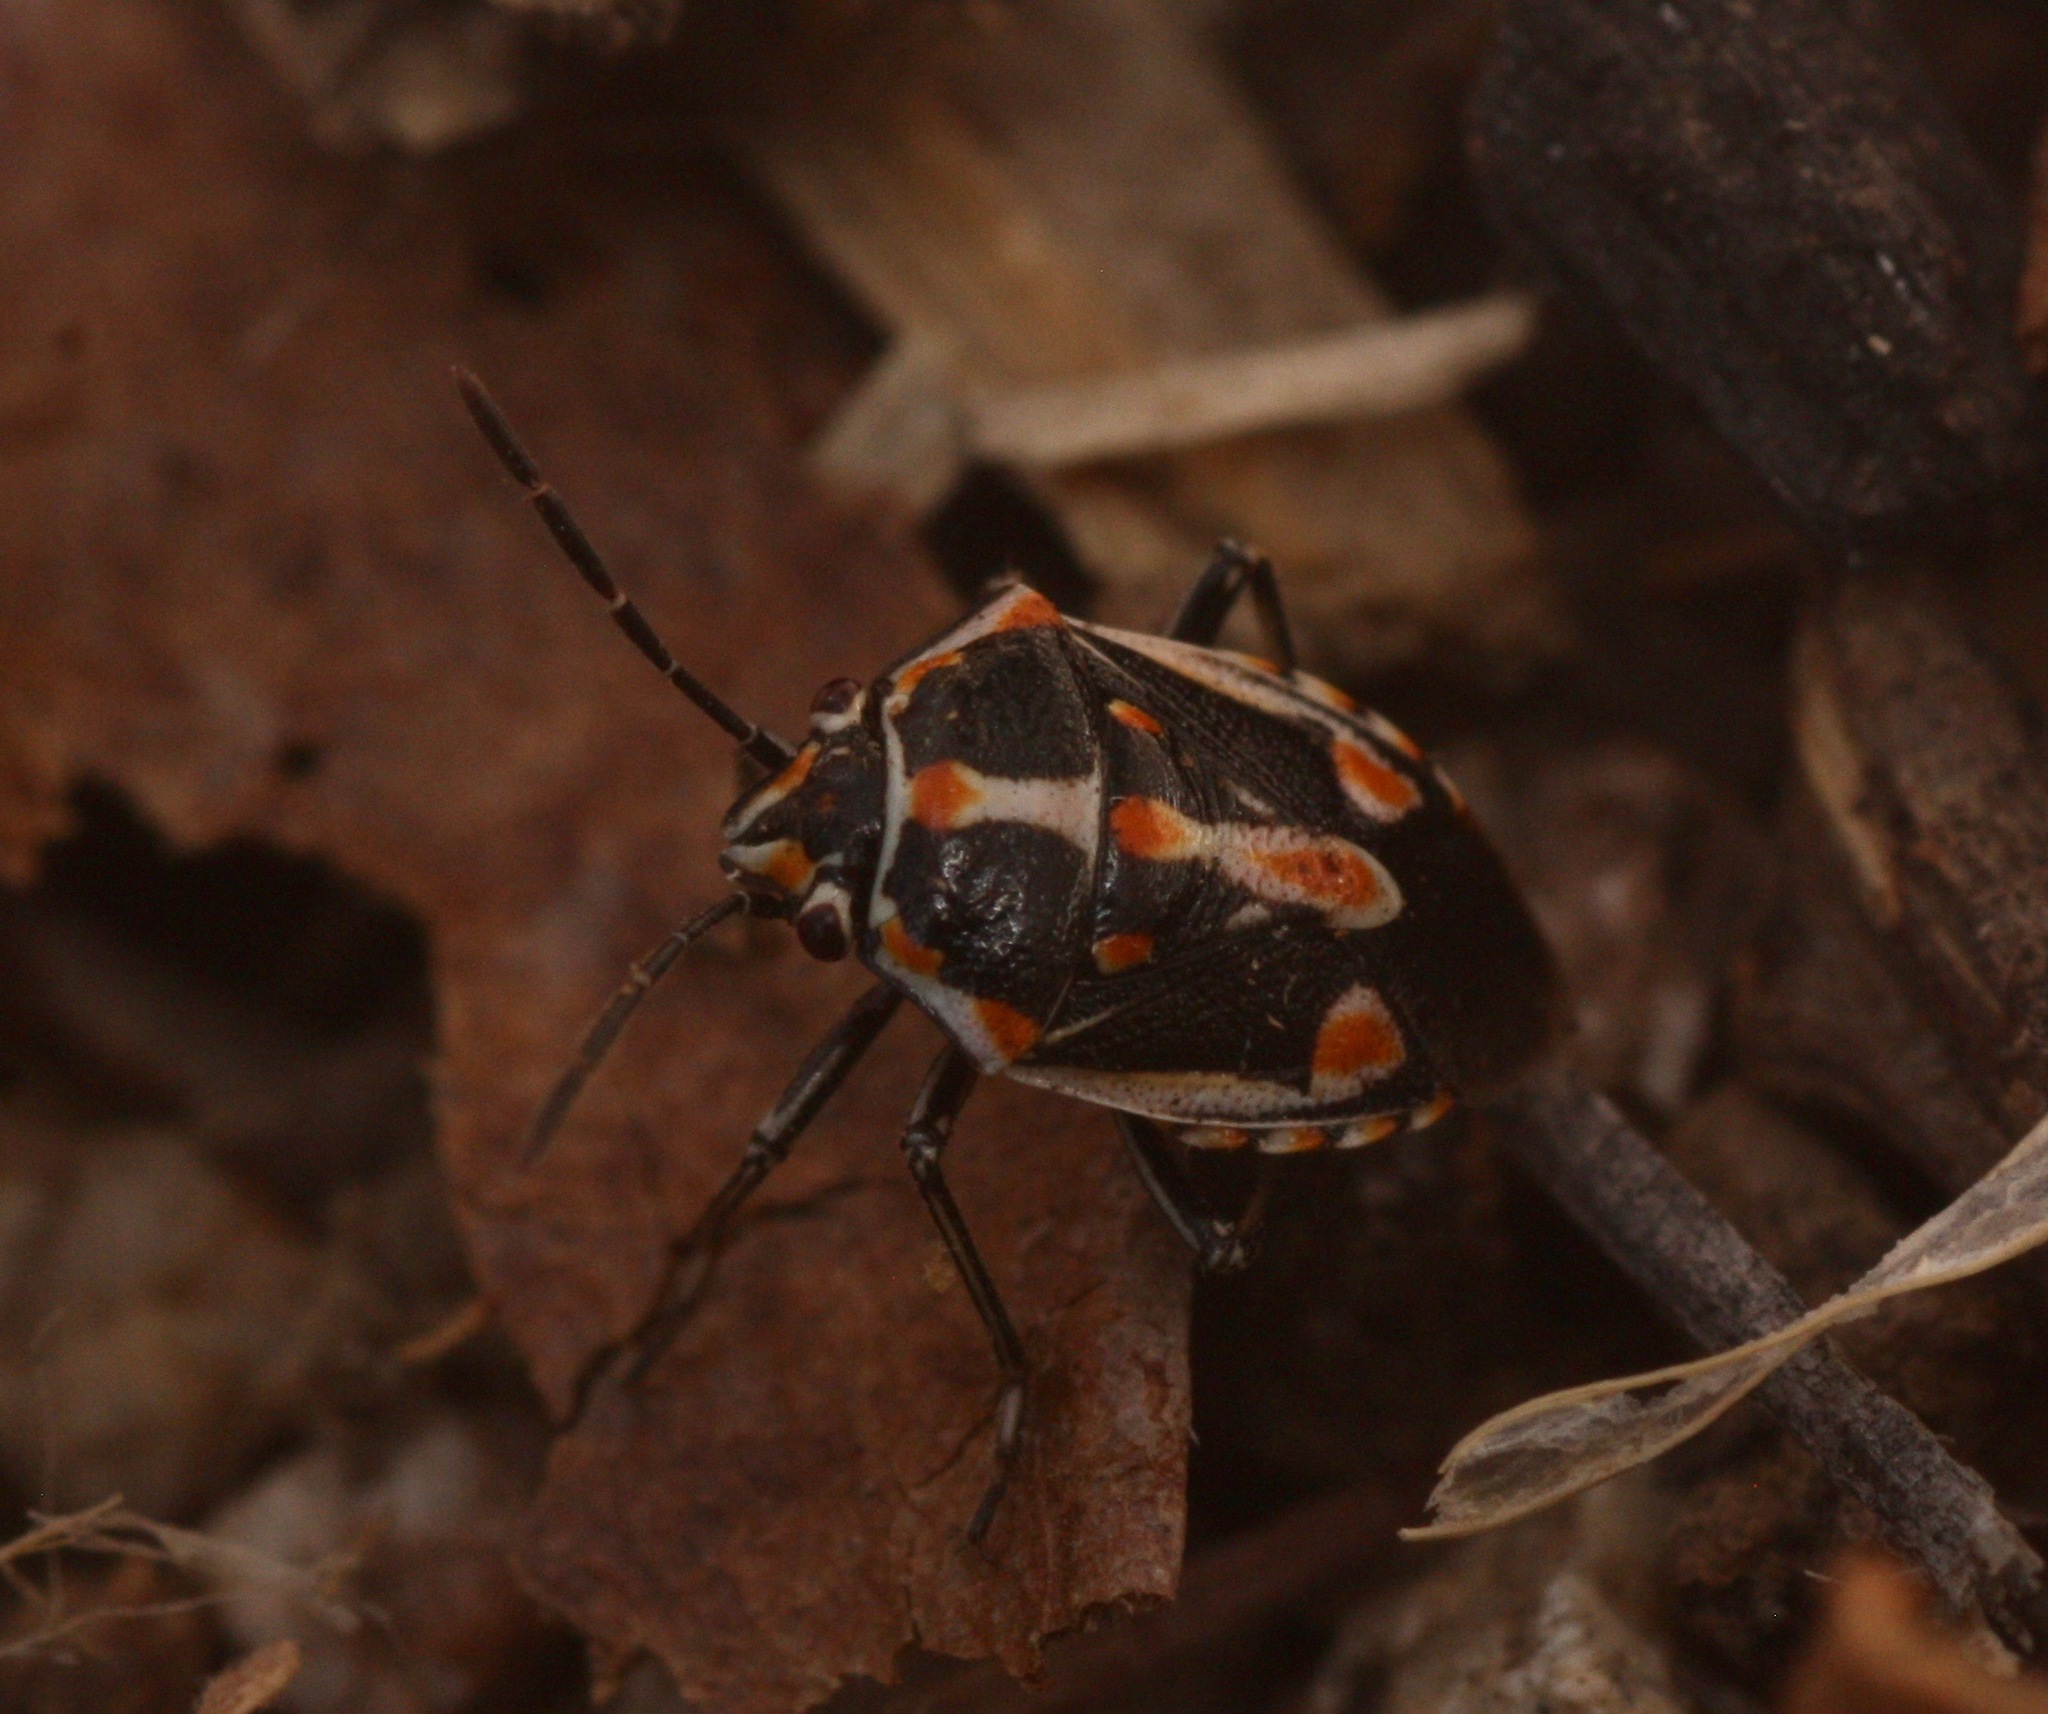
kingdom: Animalia
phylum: Arthropoda
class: Insecta
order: Hemiptera
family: Pentatomidae
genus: Bagrada
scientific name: Bagrada hilaris
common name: Bagrada bug
